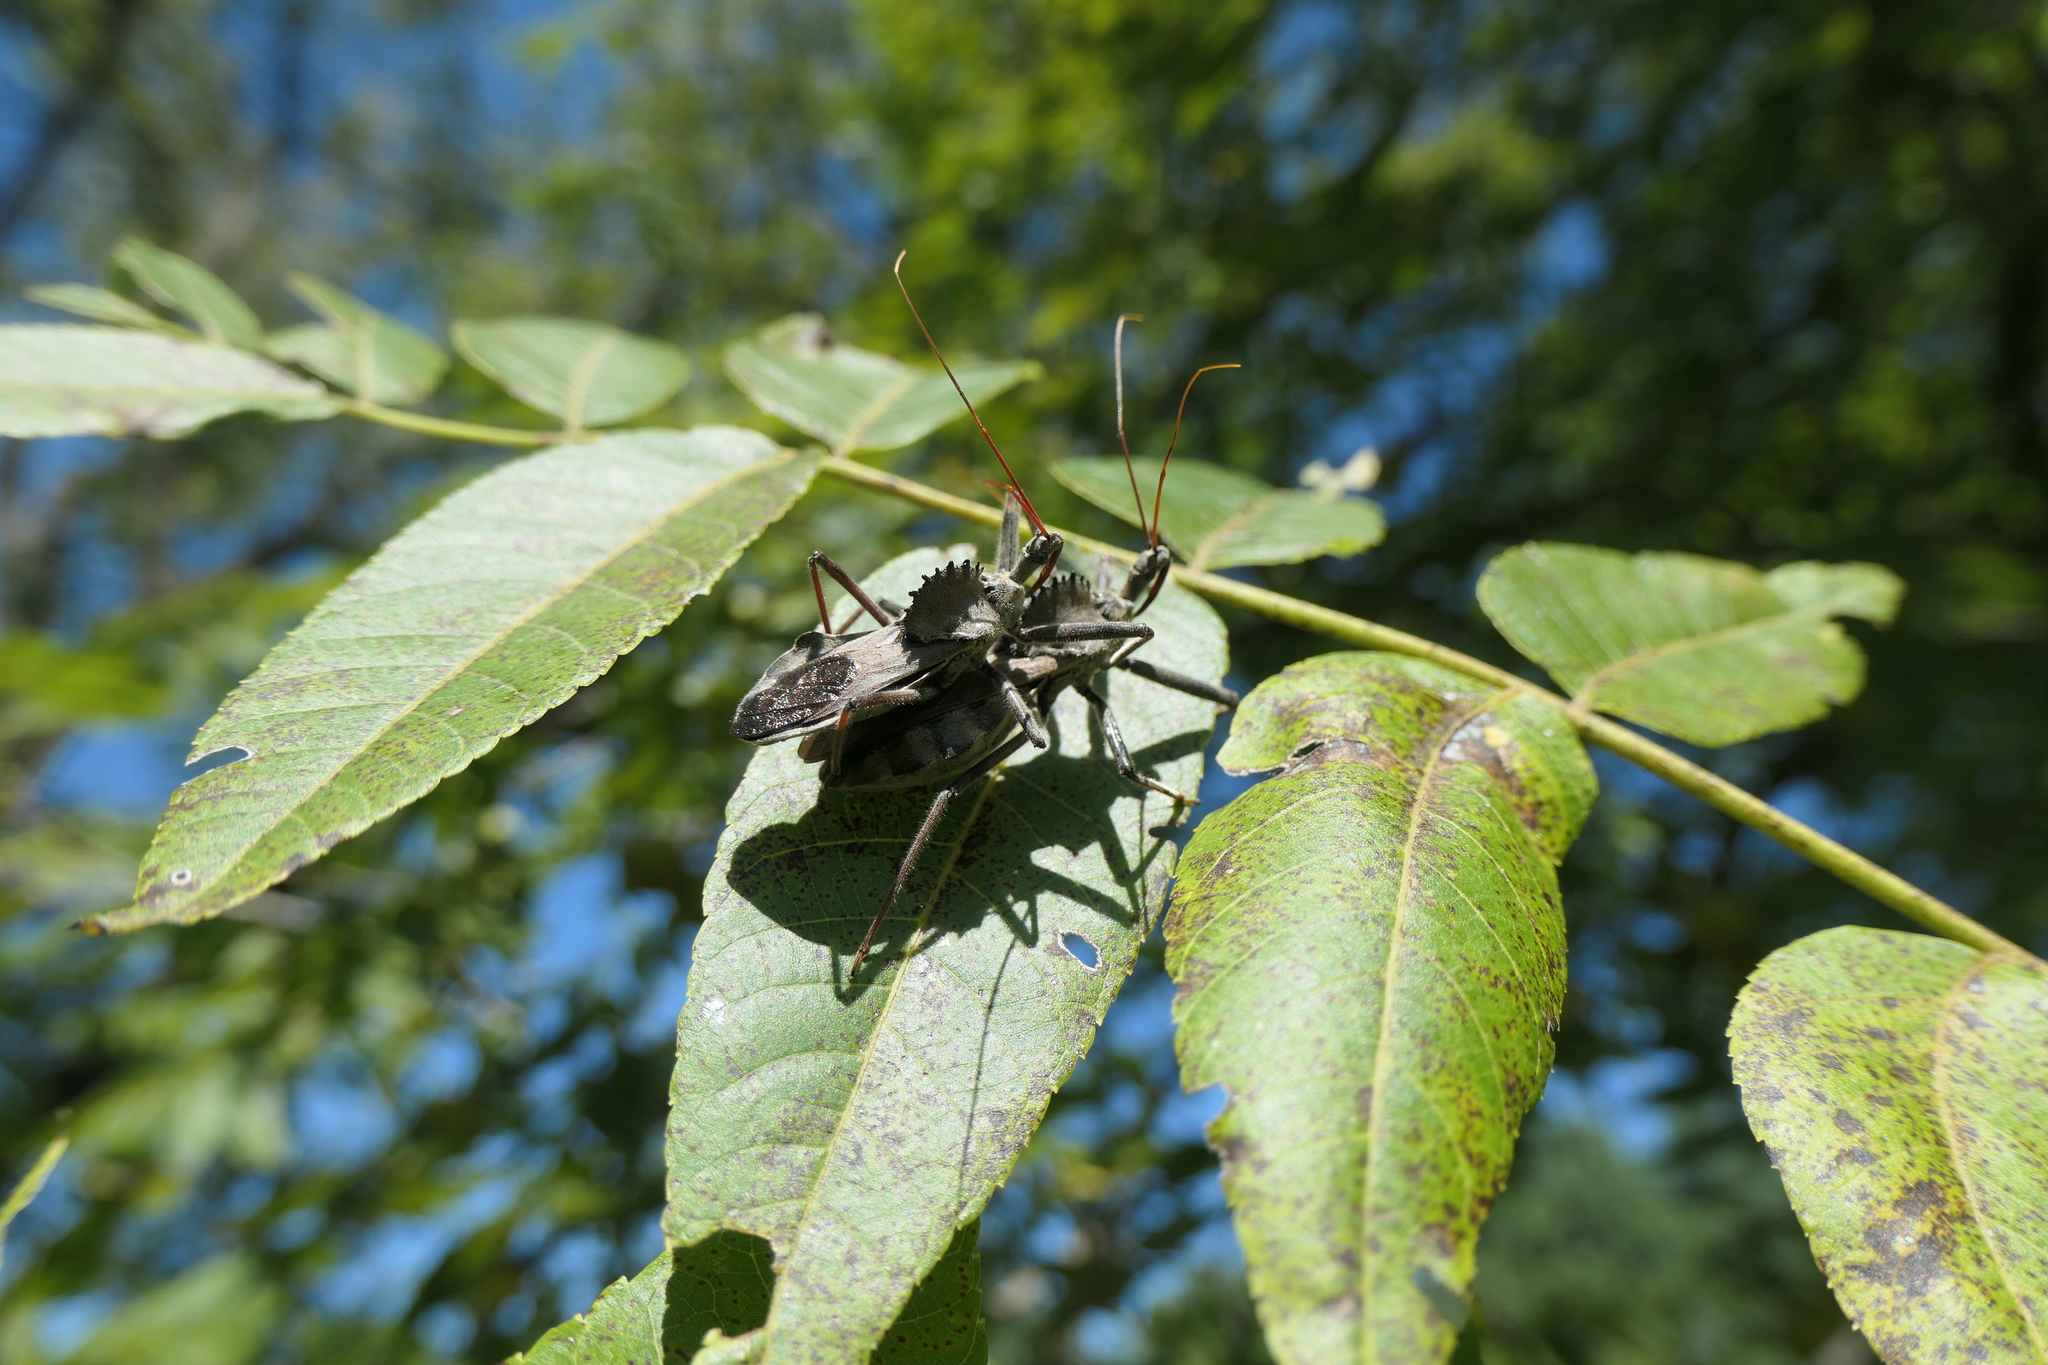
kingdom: Animalia
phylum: Arthropoda
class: Insecta
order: Hemiptera
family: Reduviidae
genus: Arilus
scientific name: Arilus cristatus
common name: North american wheel bug
